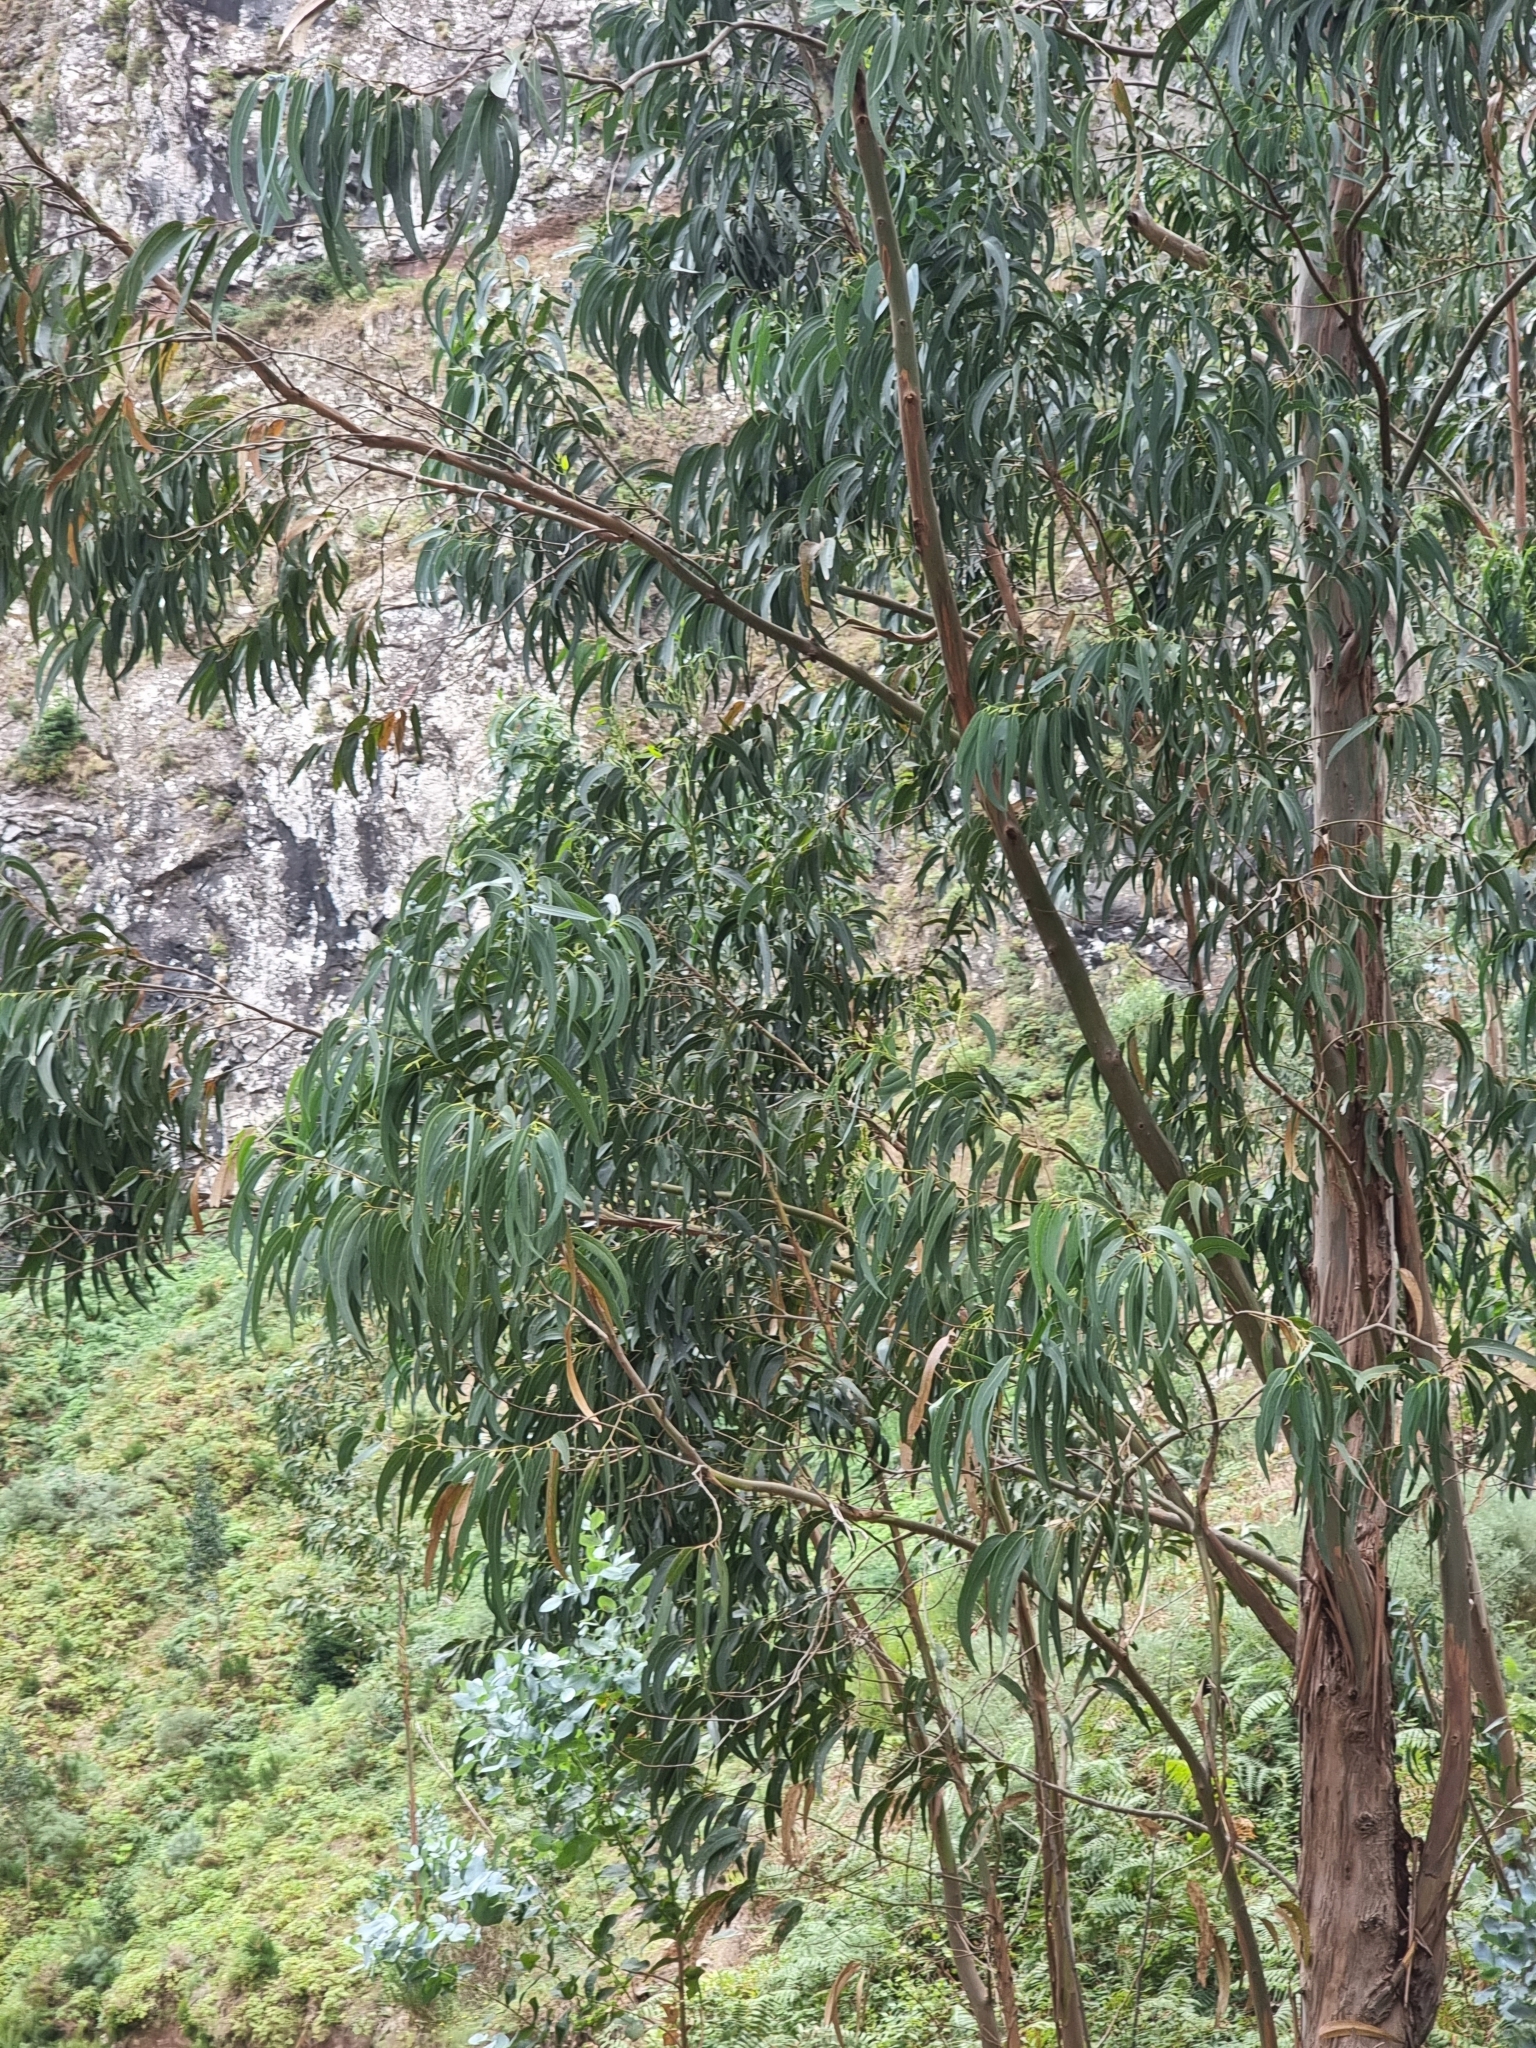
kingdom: Plantae
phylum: Tracheophyta
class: Magnoliopsida
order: Myrtales
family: Myrtaceae
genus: Eucalyptus
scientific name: Eucalyptus globulus
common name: Southern blue-gum
